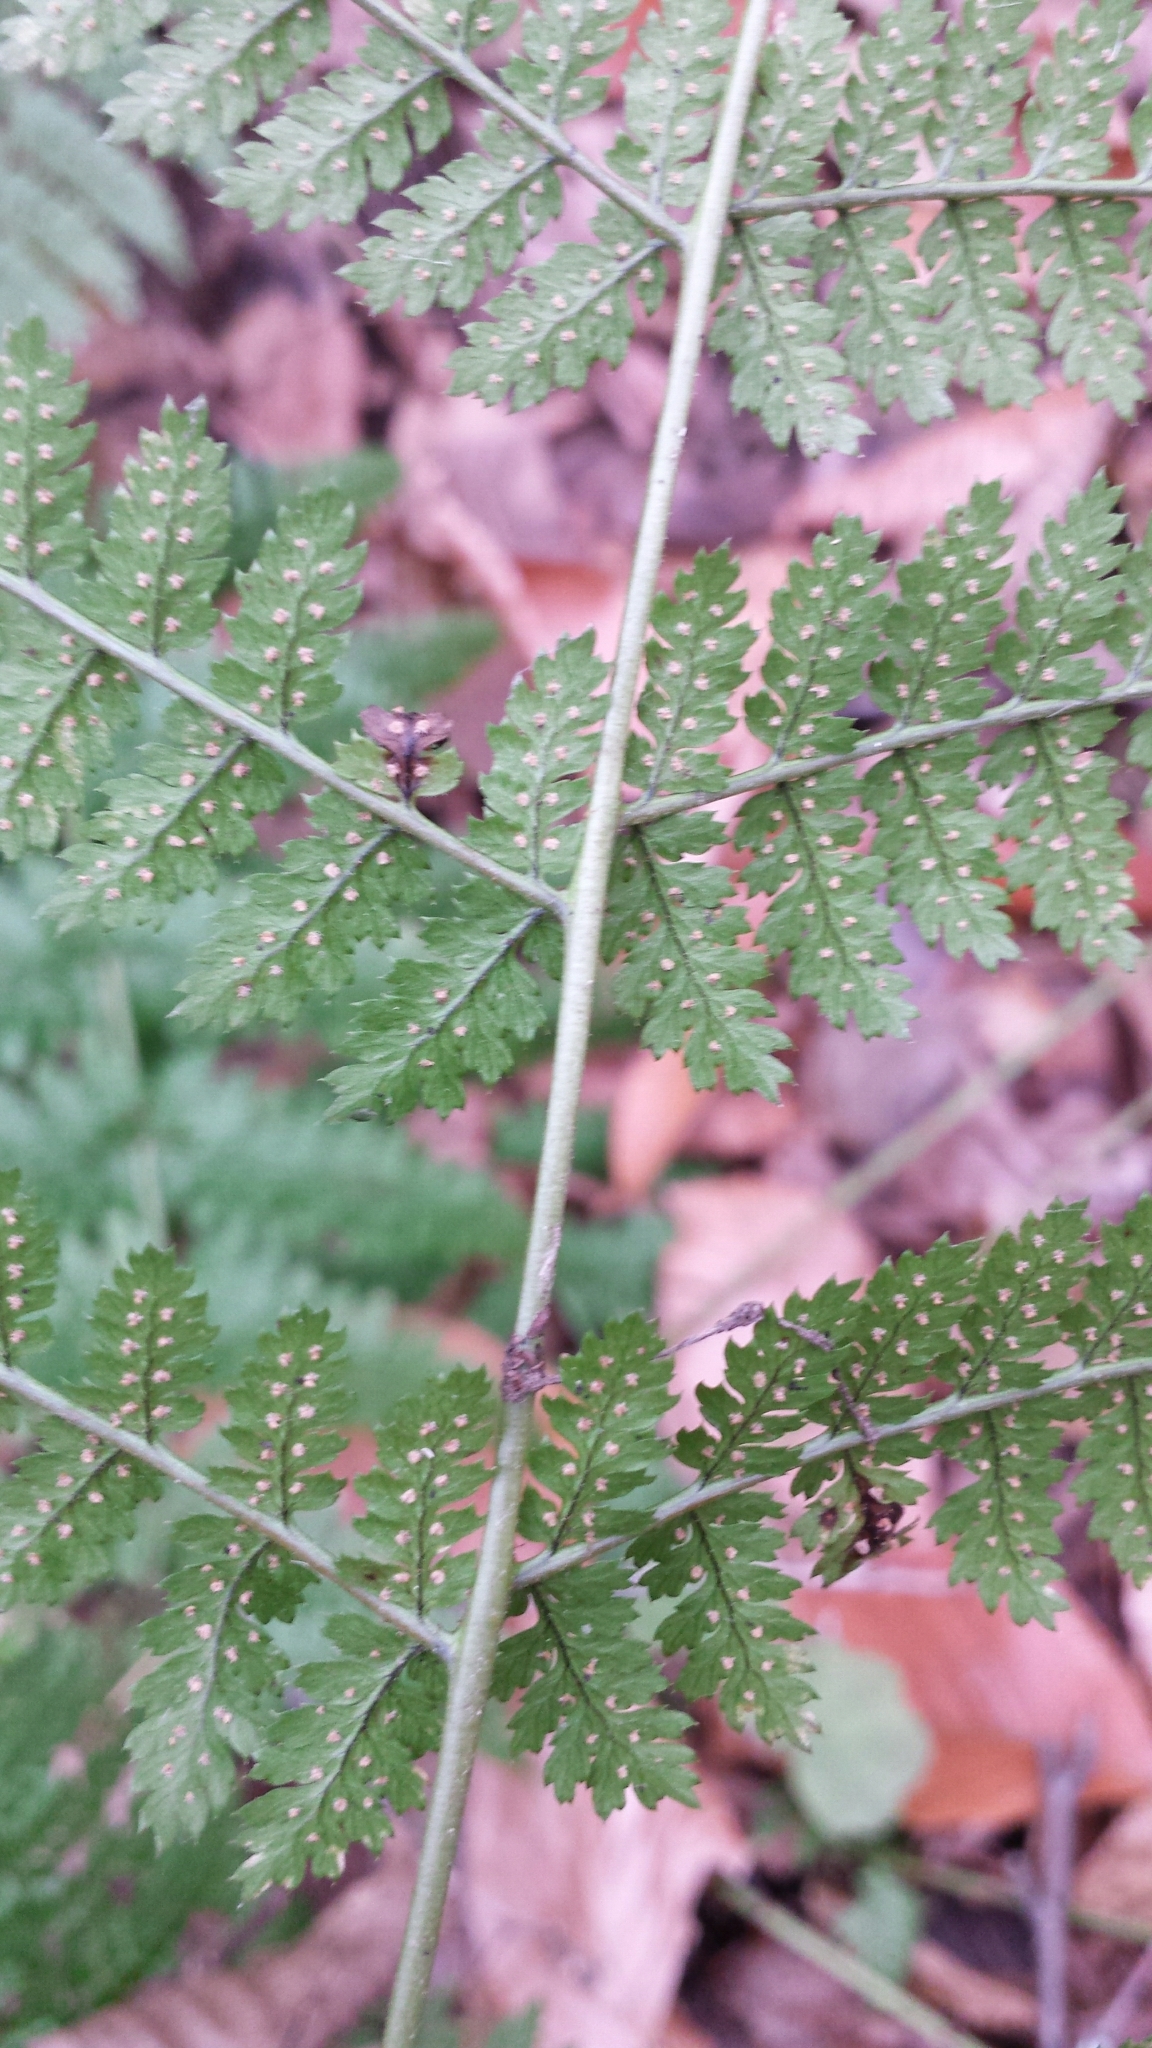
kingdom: Plantae
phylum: Tracheophyta
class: Polypodiopsida
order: Polypodiales
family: Dryopteridaceae
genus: Dryopteris
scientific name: Dryopteris intermedia
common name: Evergreen wood fern
